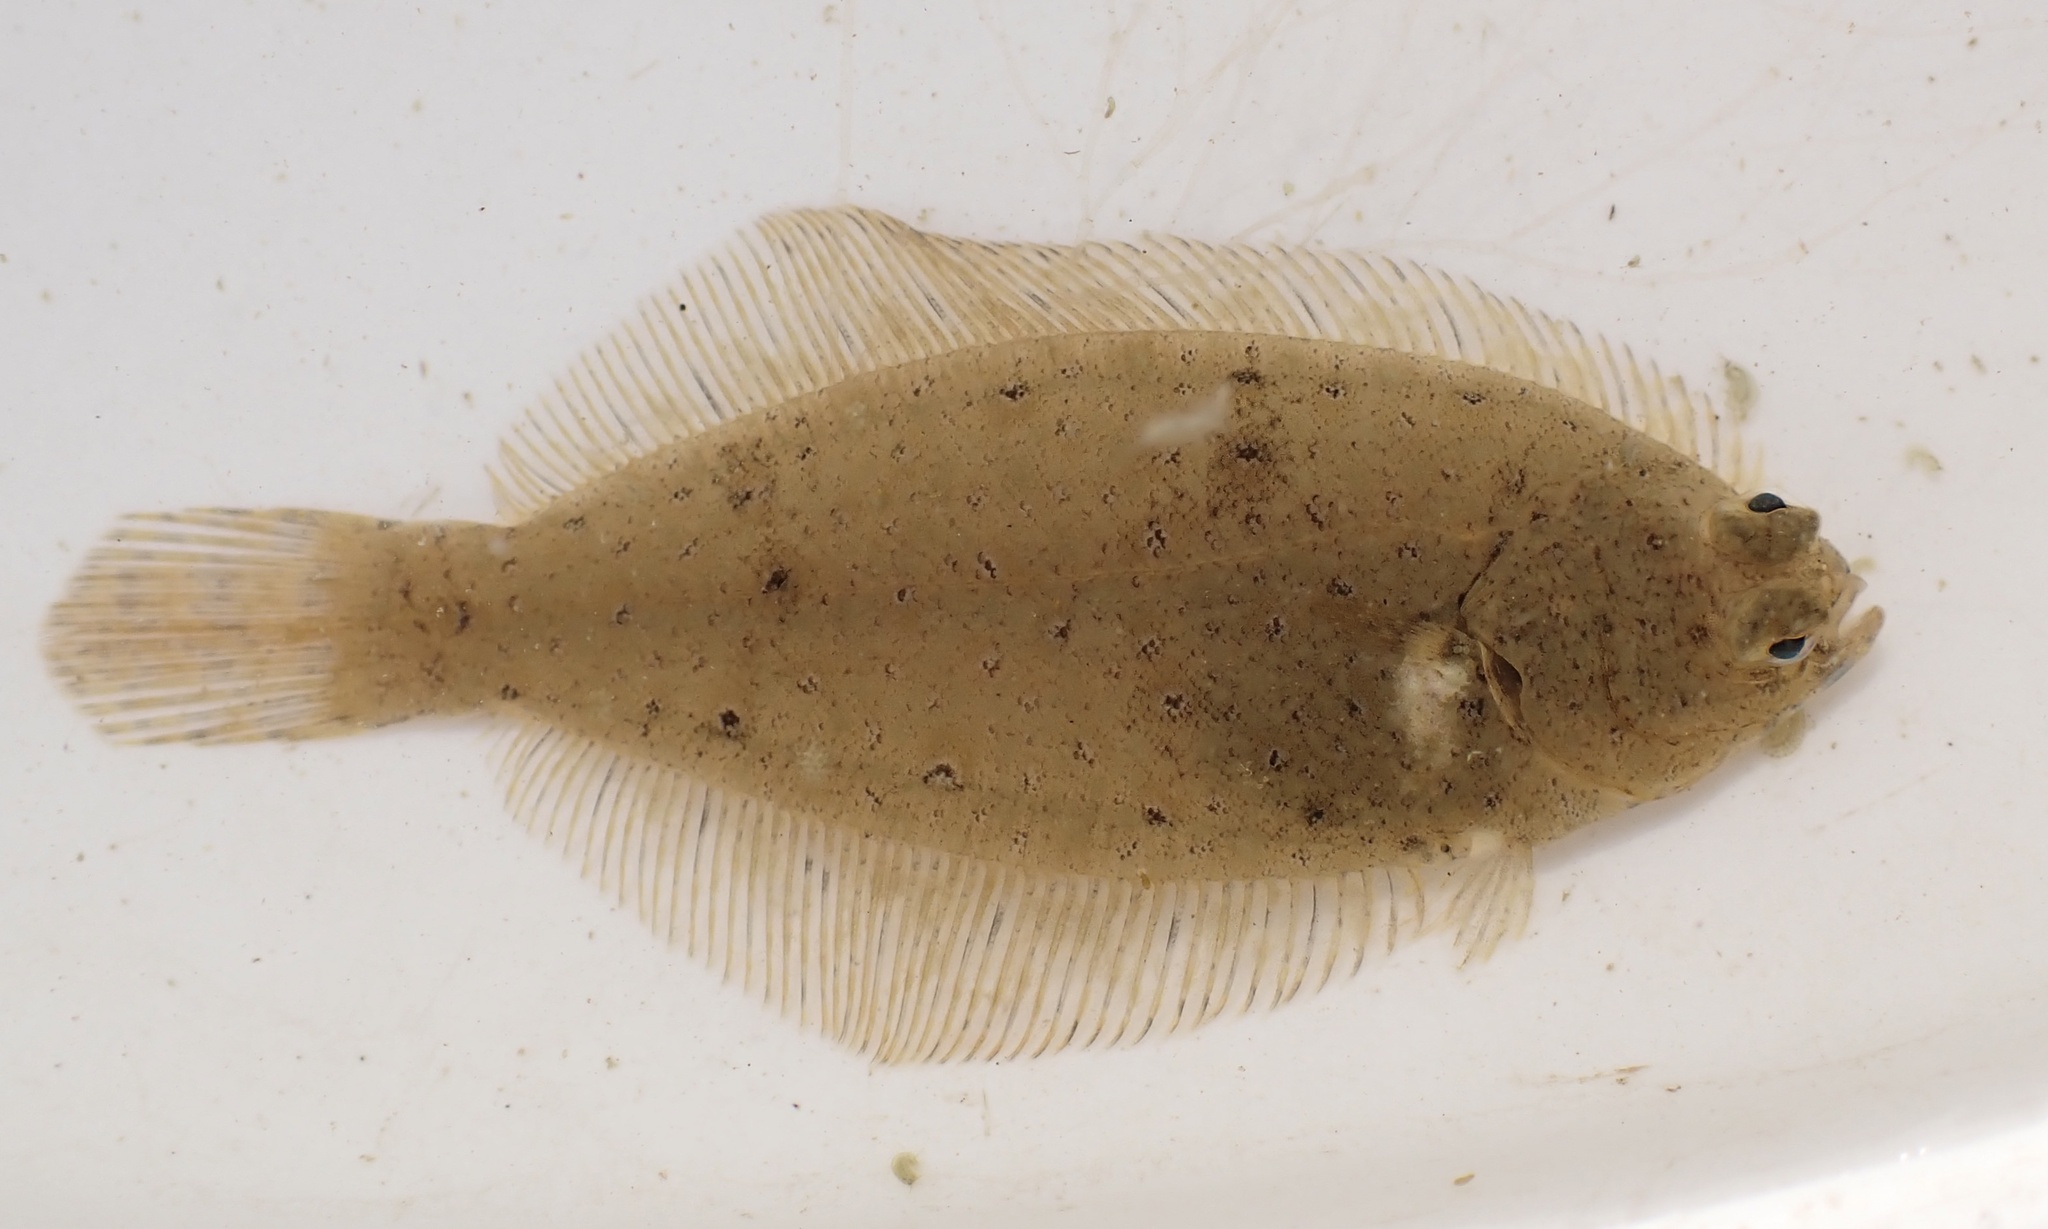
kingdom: Animalia
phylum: Chordata
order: Pleuronectiformes
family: Pleuronectidae
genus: Pseudopleuronectes
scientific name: Pseudopleuronectes americanus
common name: Black backs
